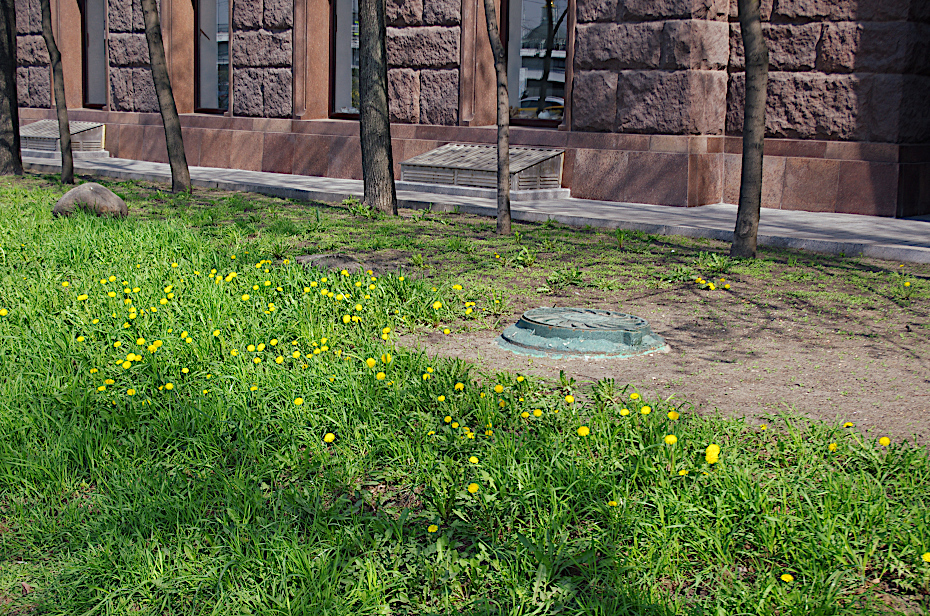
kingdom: Plantae
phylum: Tracheophyta
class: Magnoliopsida
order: Asterales
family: Asteraceae
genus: Taraxacum
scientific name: Taraxacum officinale
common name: Common dandelion
